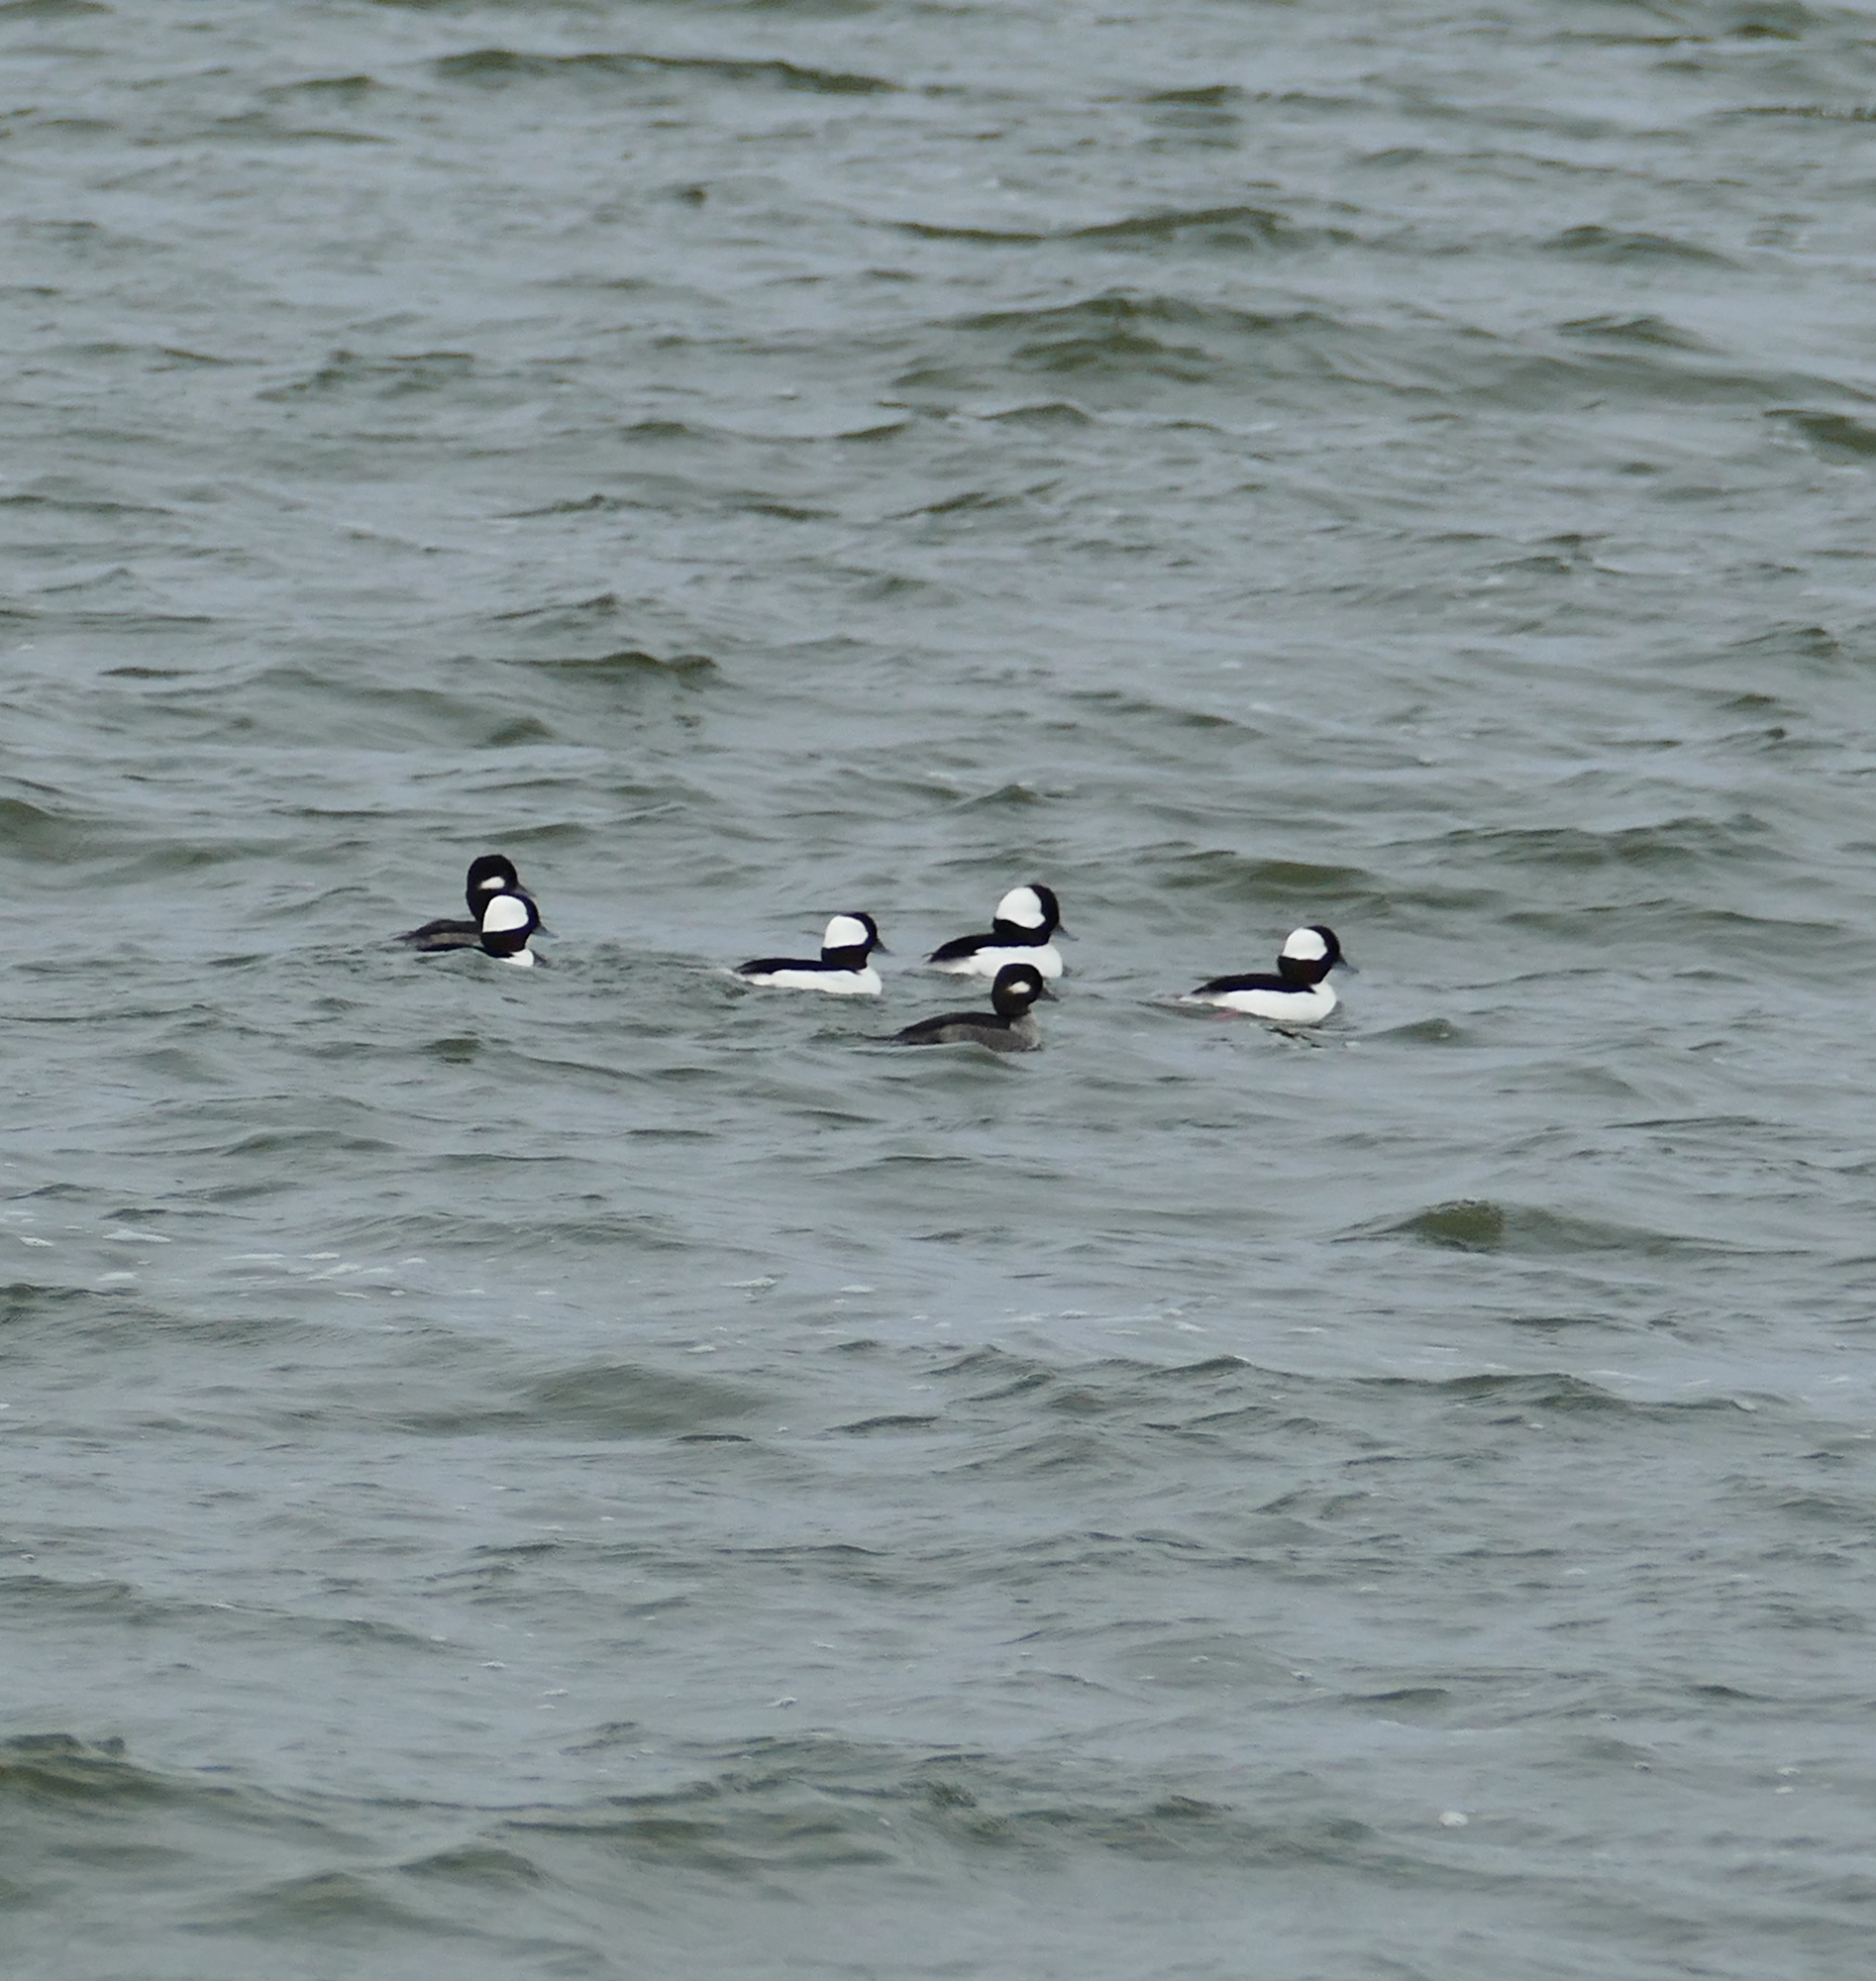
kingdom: Animalia
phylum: Chordata
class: Aves
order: Anseriformes
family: Anatidae
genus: Bucephala
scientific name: Bucephala albeola
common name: Bufflehead
